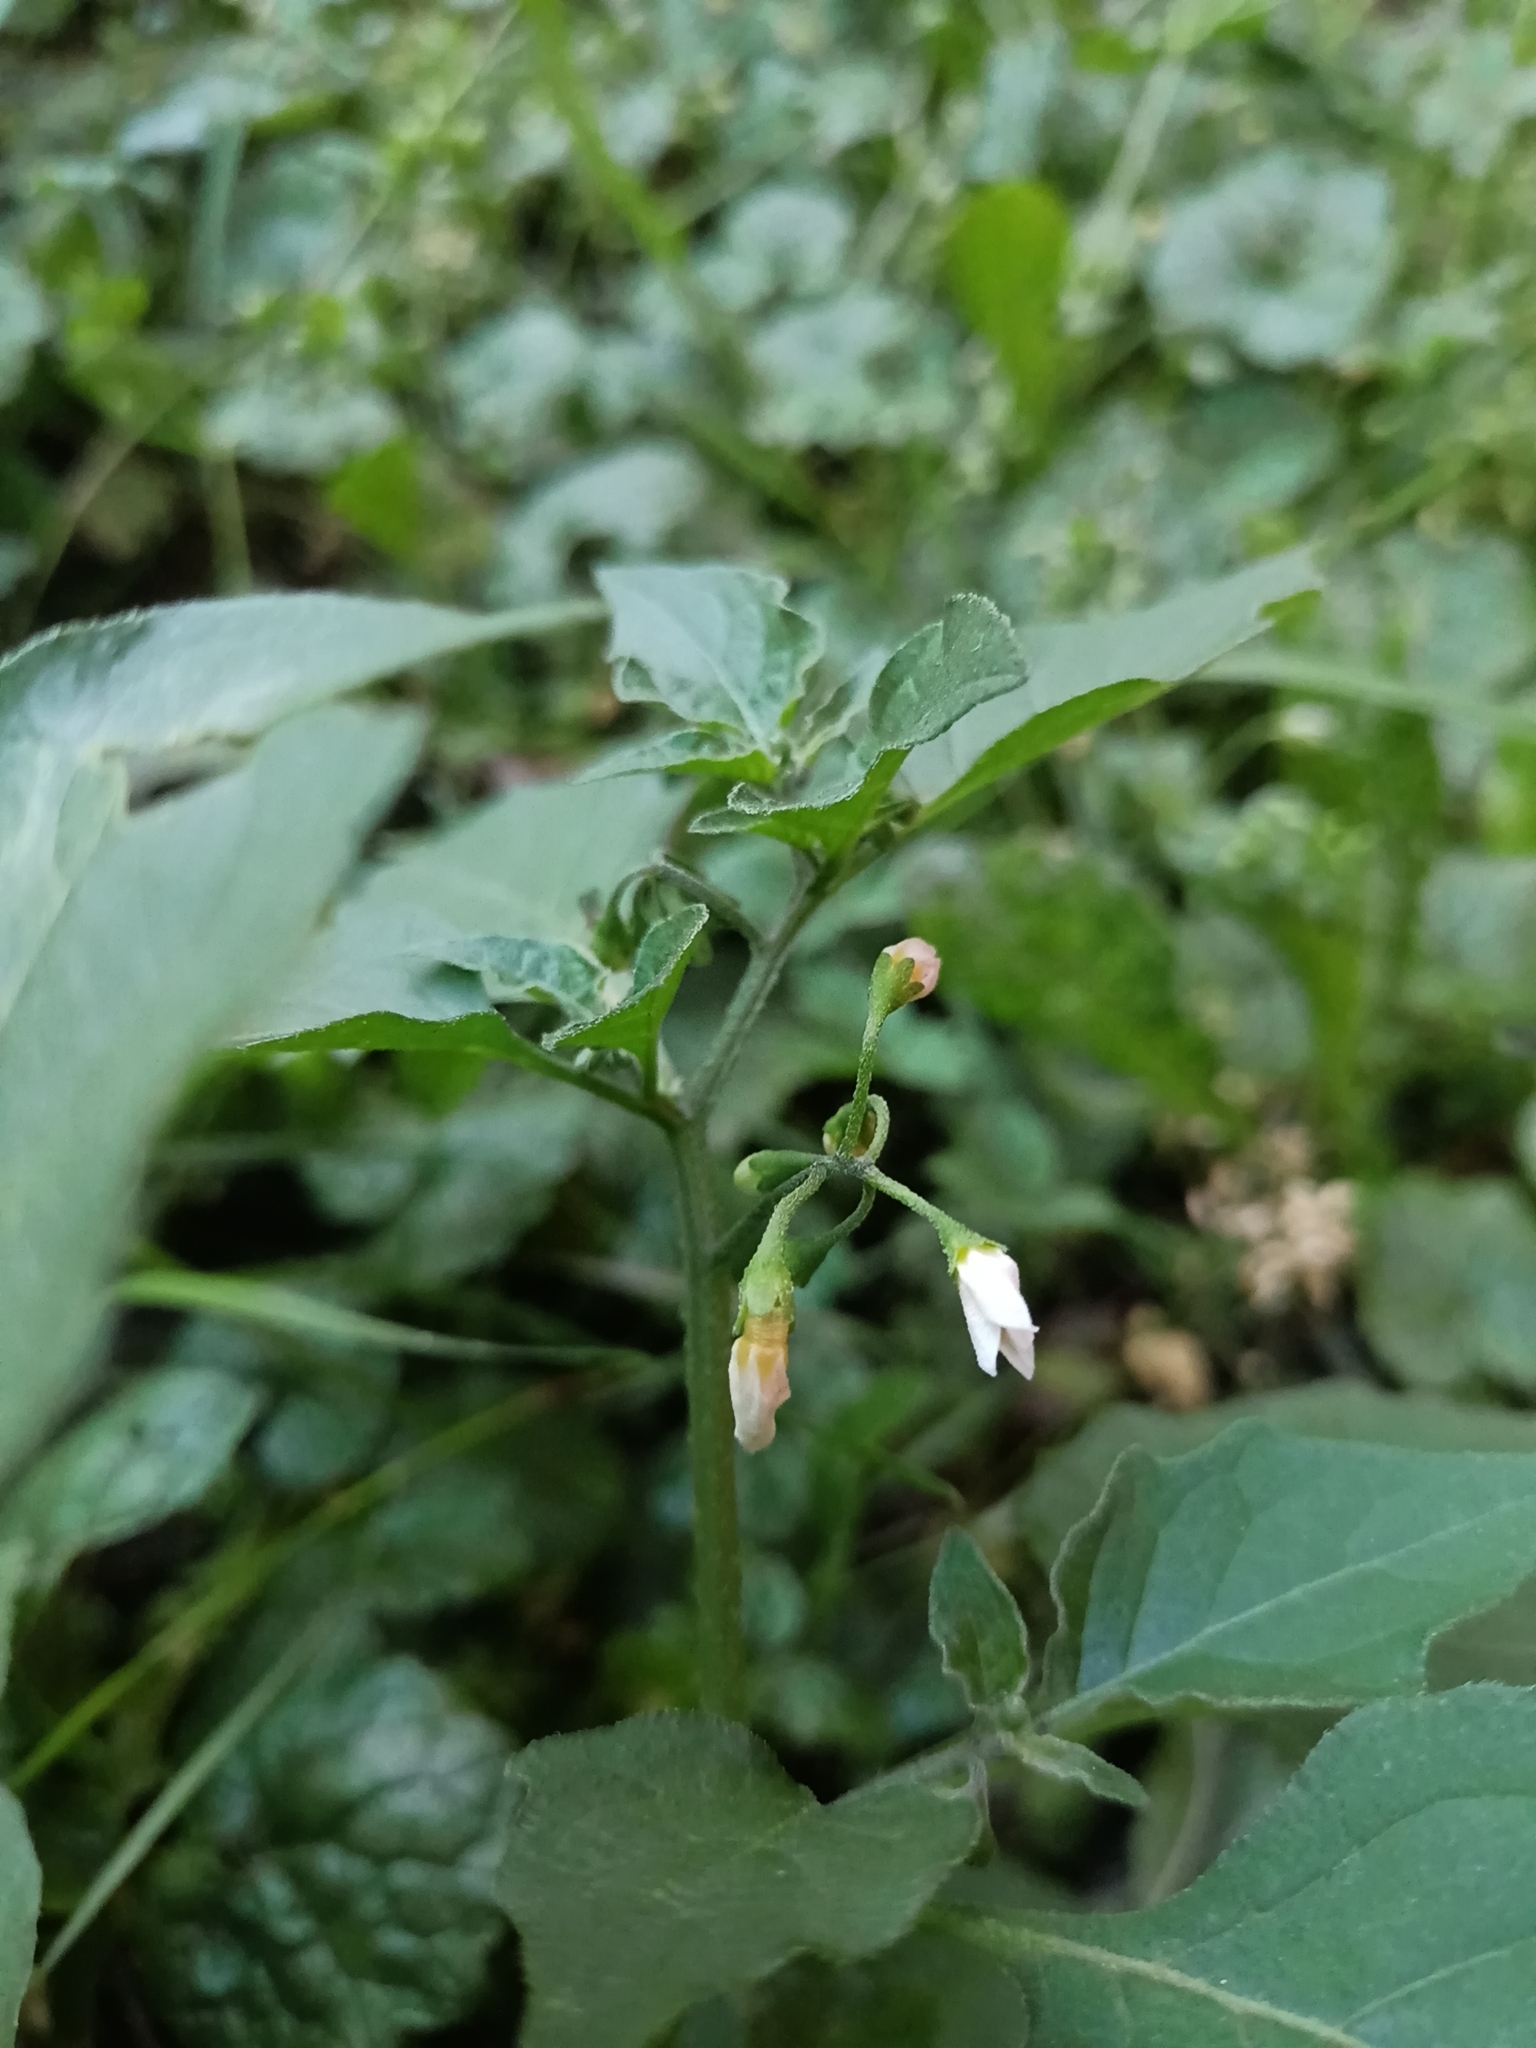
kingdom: Plantae
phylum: Tracheophyta
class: Magnoliopsida
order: Solanales
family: Solanaceae
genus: Solanum
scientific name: Solanum nigrum
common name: Black nightshade
